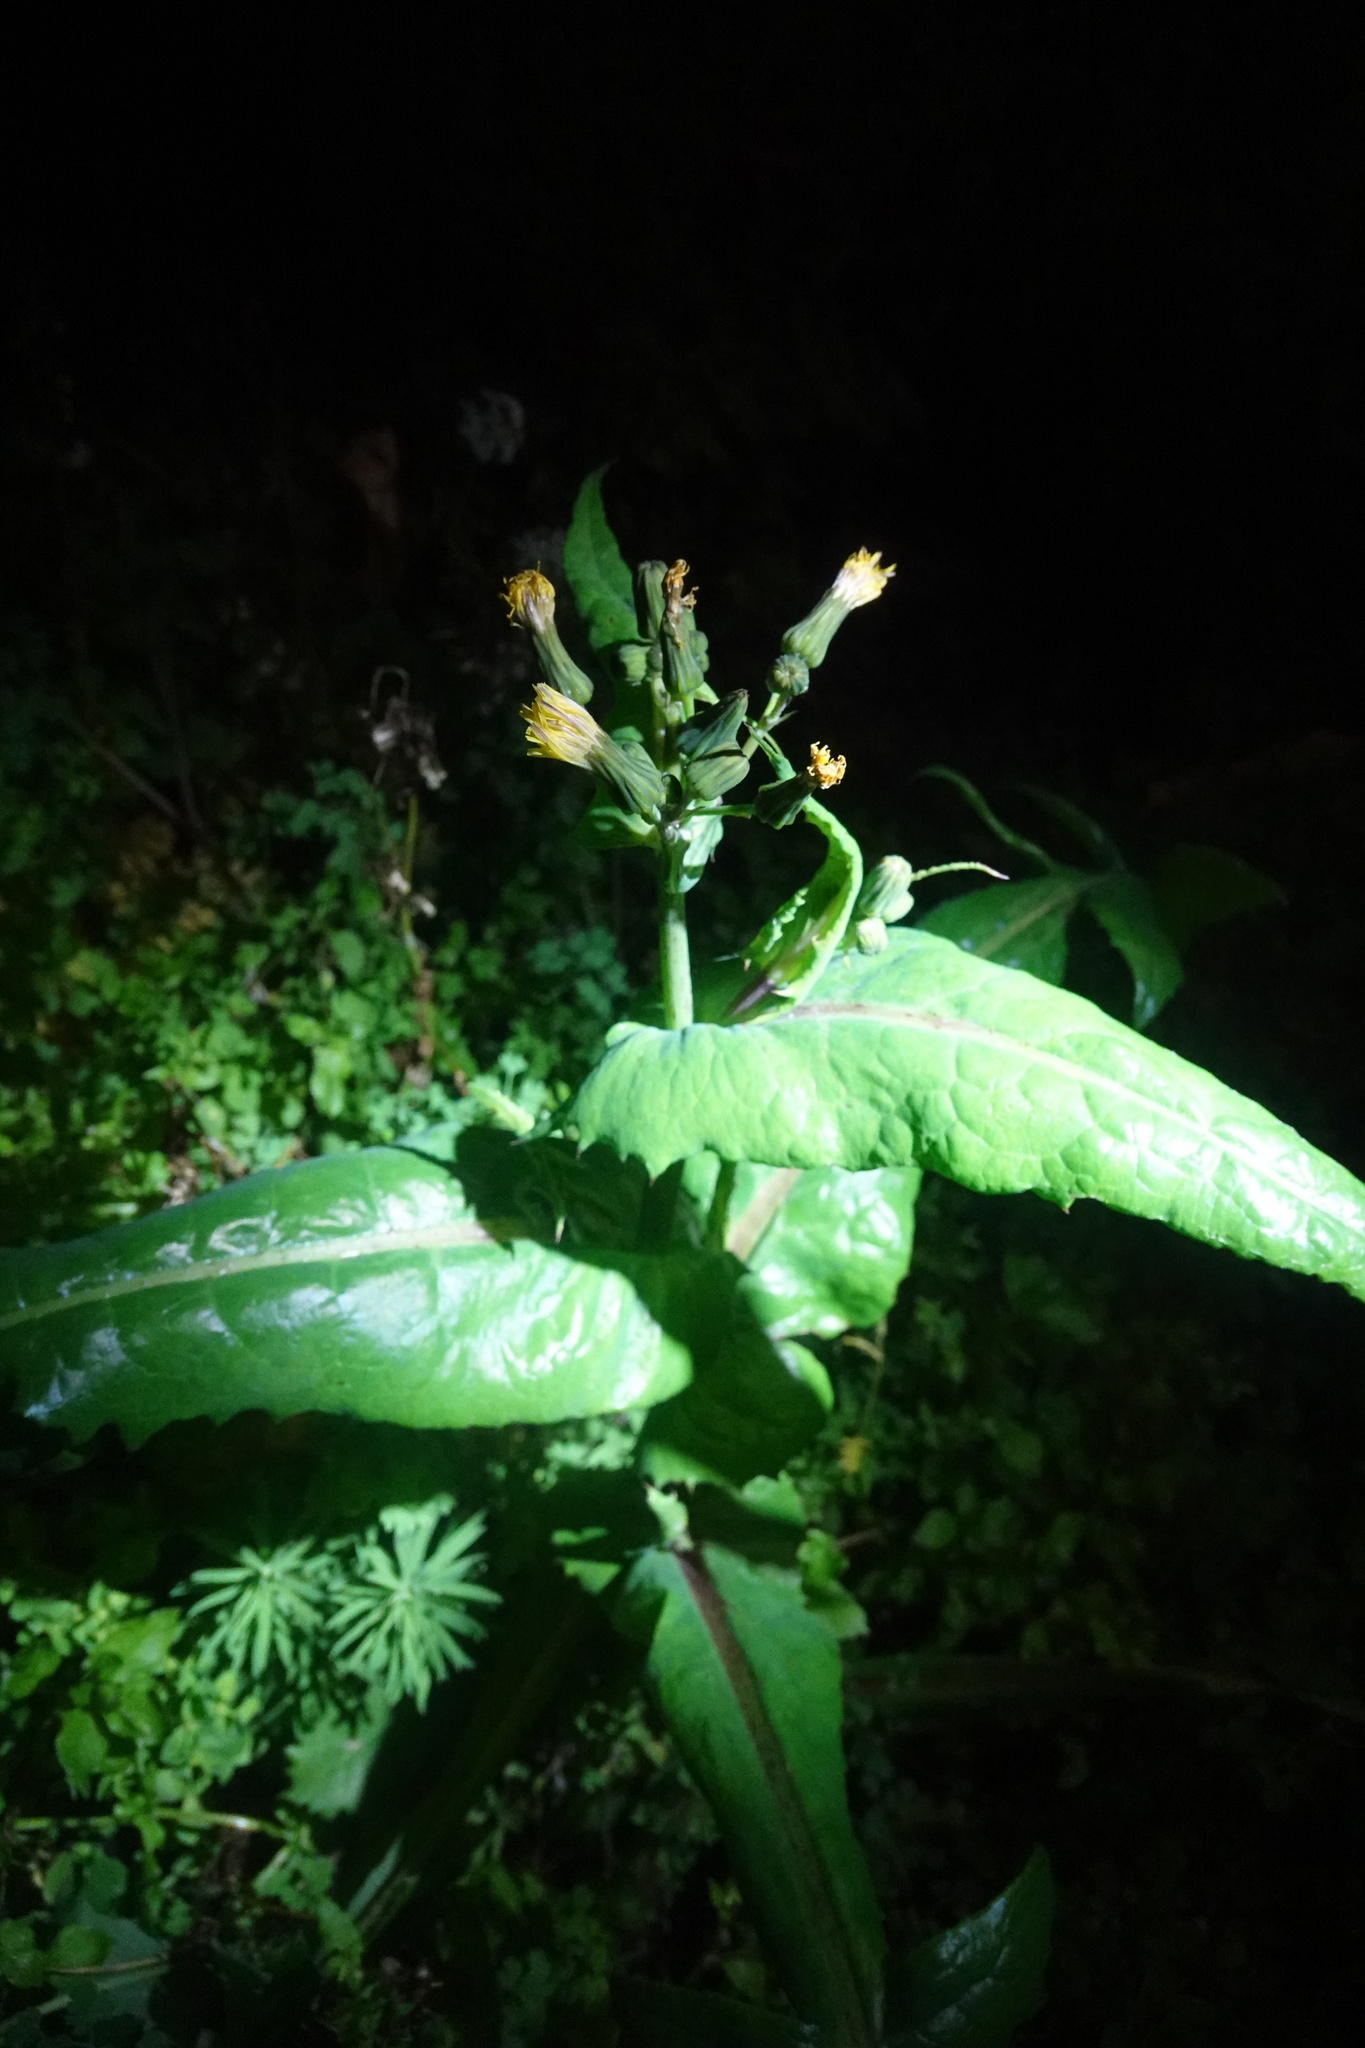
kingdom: Plantae
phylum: Tracheophyta
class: Magnoliopsida
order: Asterales
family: Asteraceae
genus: Sonchus
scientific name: Sonchus oleraceus
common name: Common sowthistle
